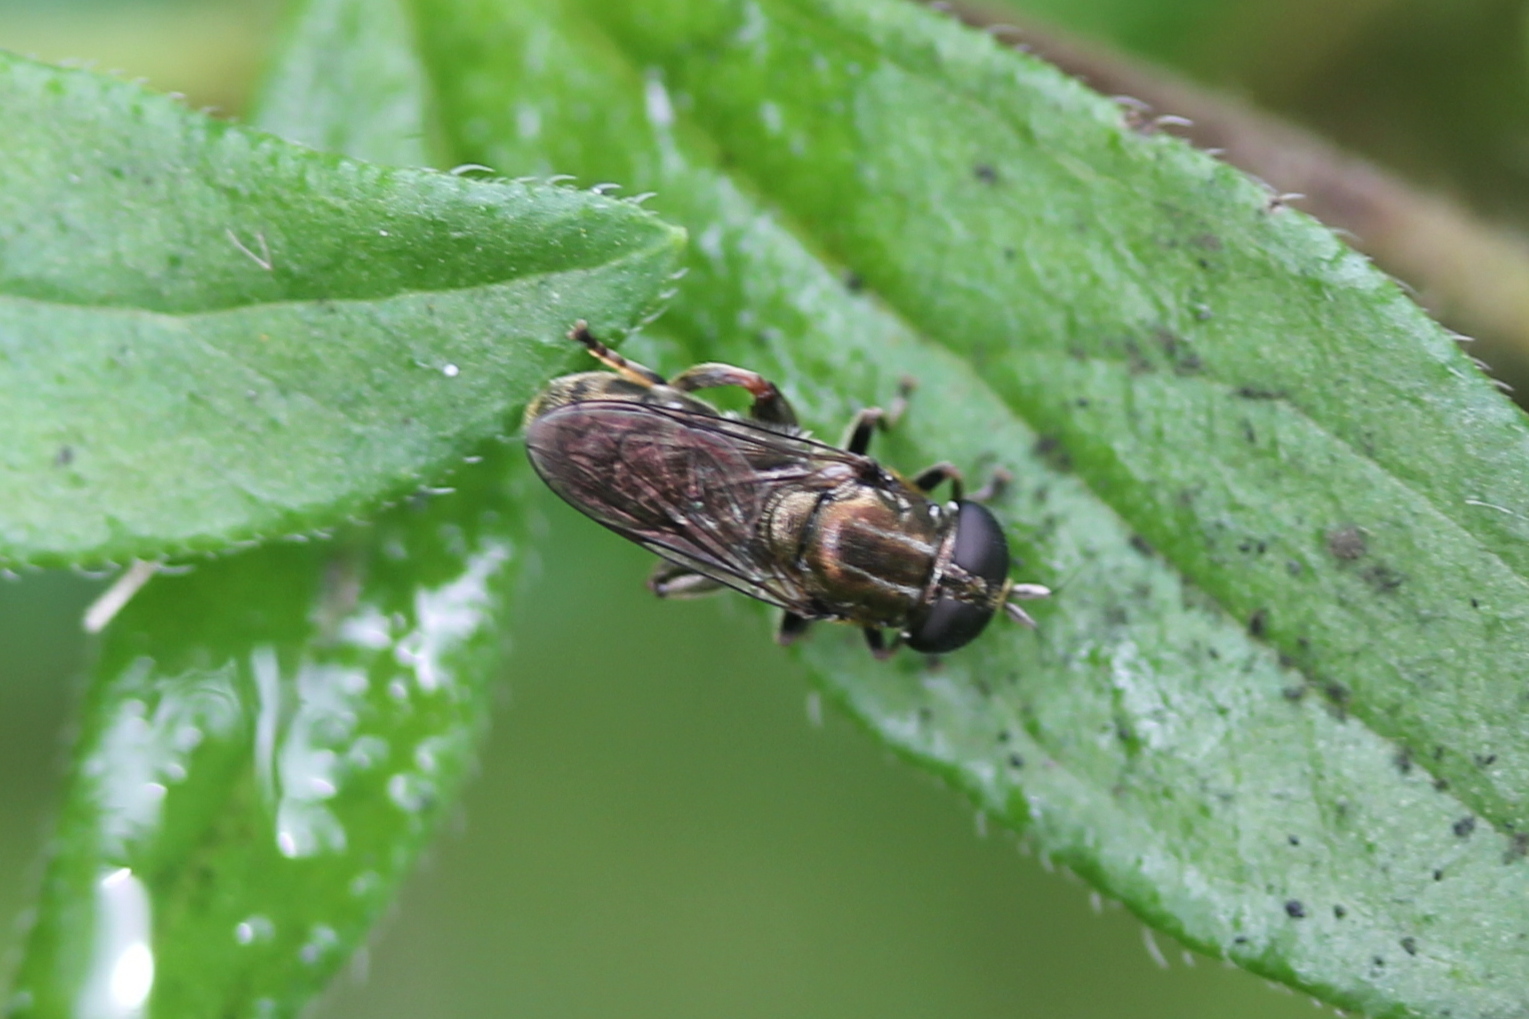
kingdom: Animalia
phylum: Arthropoda
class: Insecta
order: Diptera
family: Syrphidae
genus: Eumerus
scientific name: Eumerus
